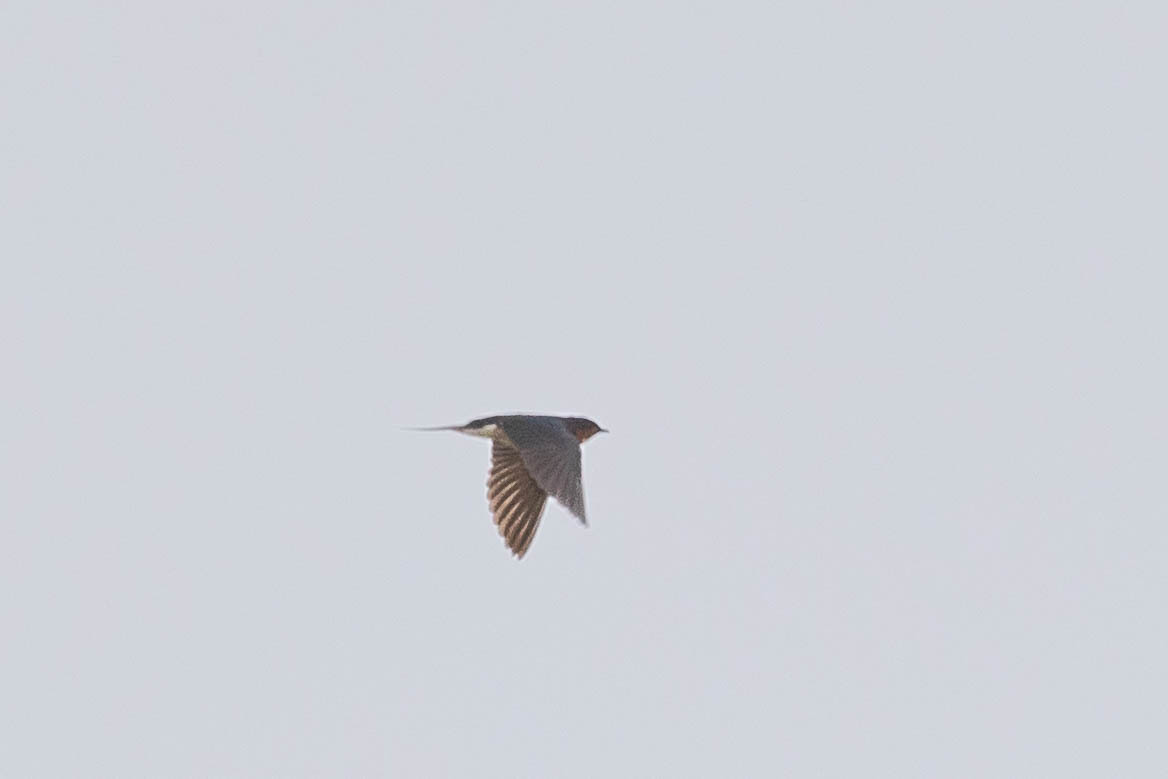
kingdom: Animalia
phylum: Chordata
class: Aves
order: Passeriformes
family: Hirundinidae
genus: Hirundo
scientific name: Hirundo rustica
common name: Barn swallow
